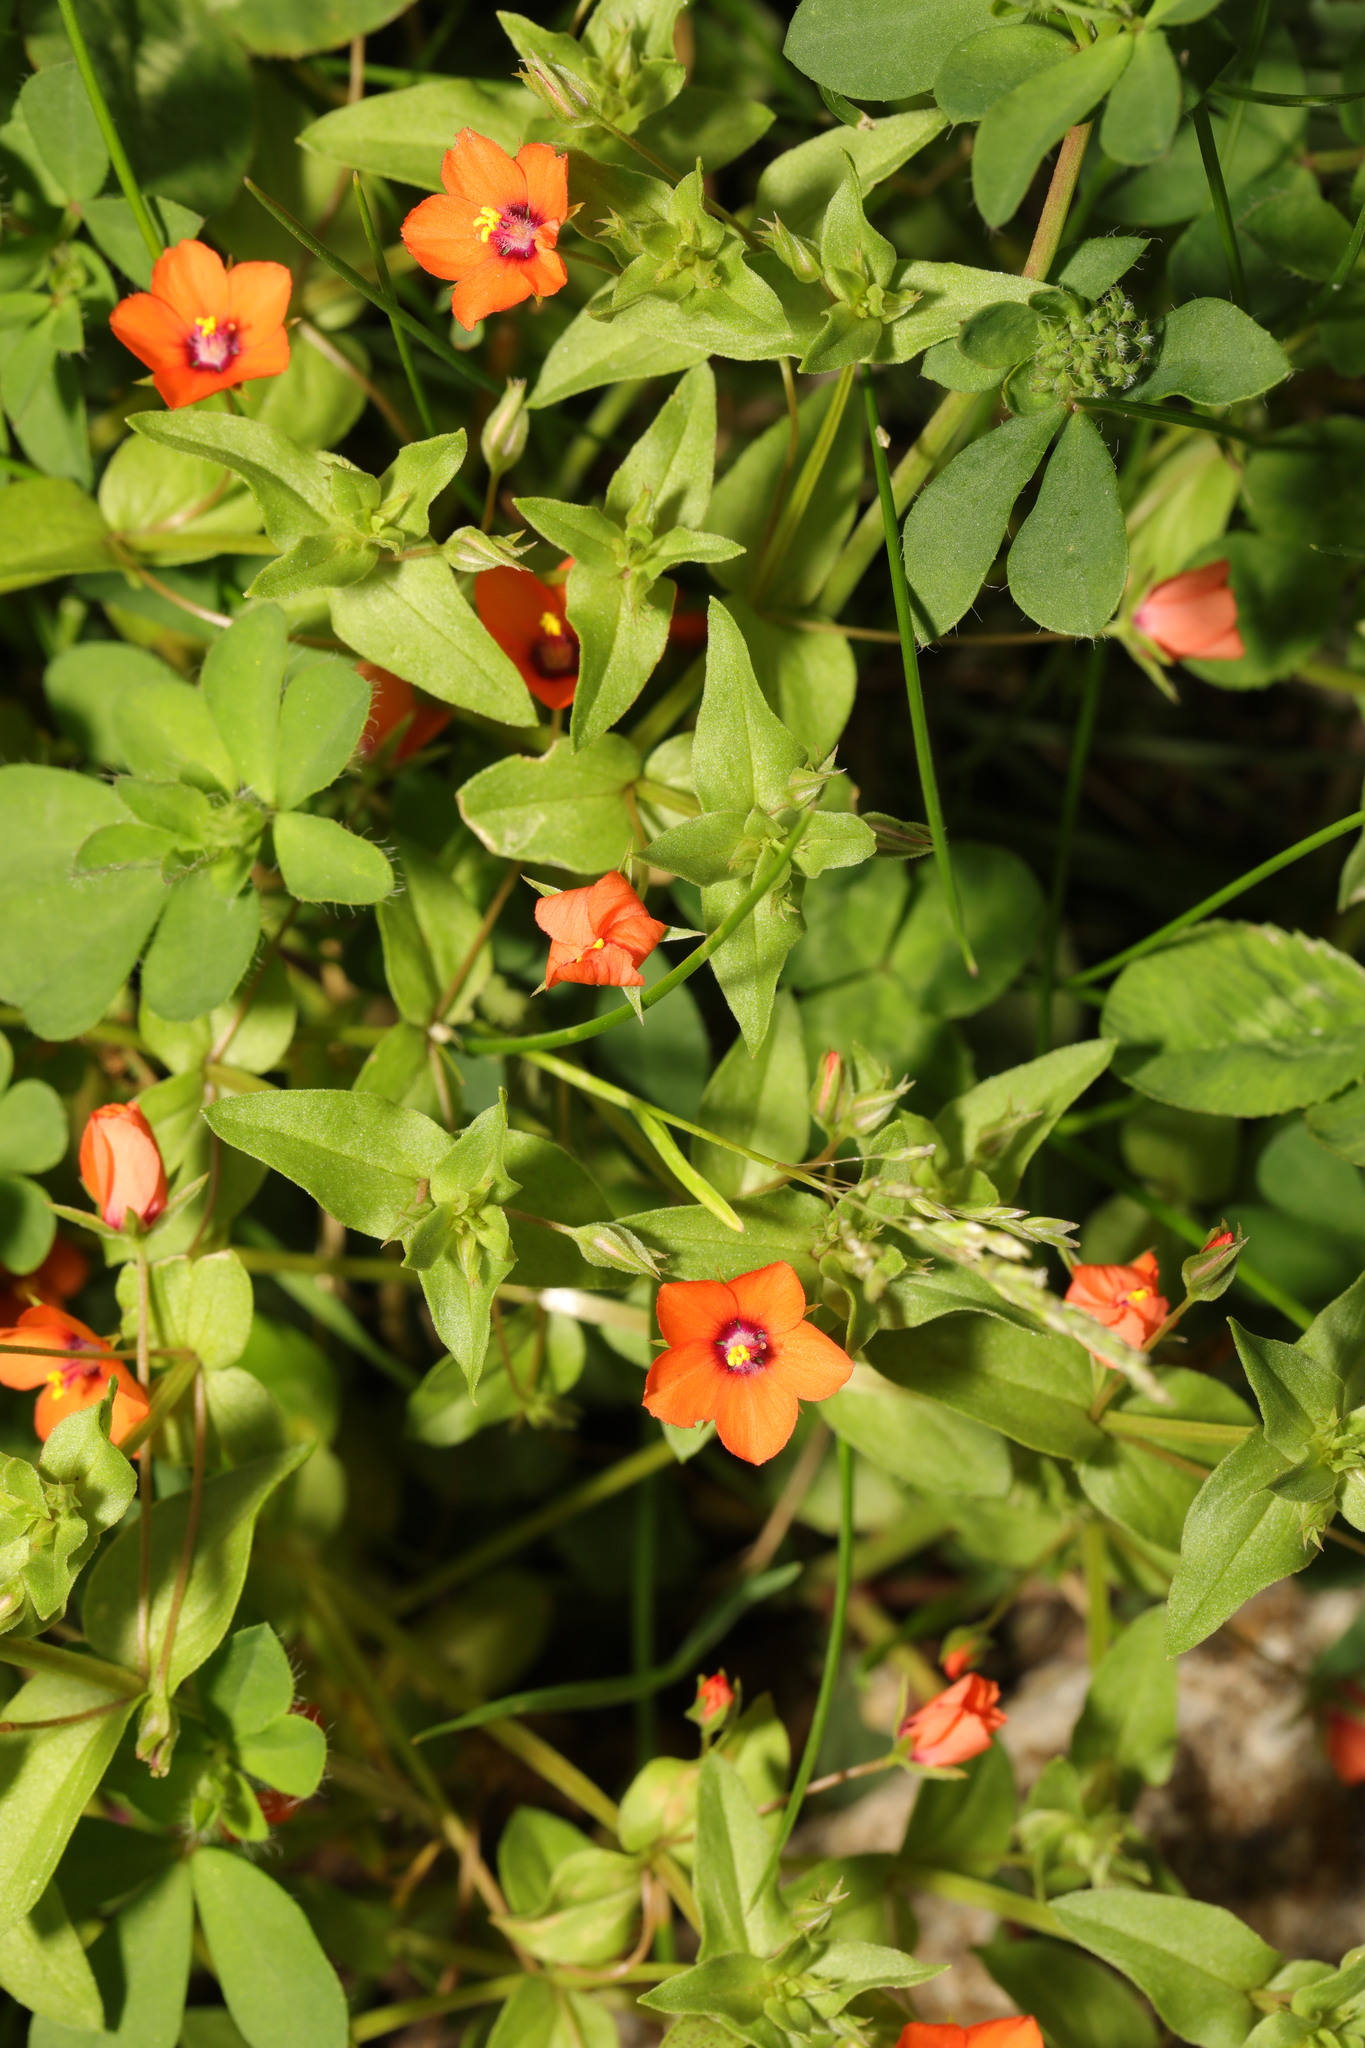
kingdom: Plantae
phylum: Tracheophyta
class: Magnoliopsida
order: Ericales
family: Primulaceae
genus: Lysimachia
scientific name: Lysimachia arvensis
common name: Scarlet pimpernel
